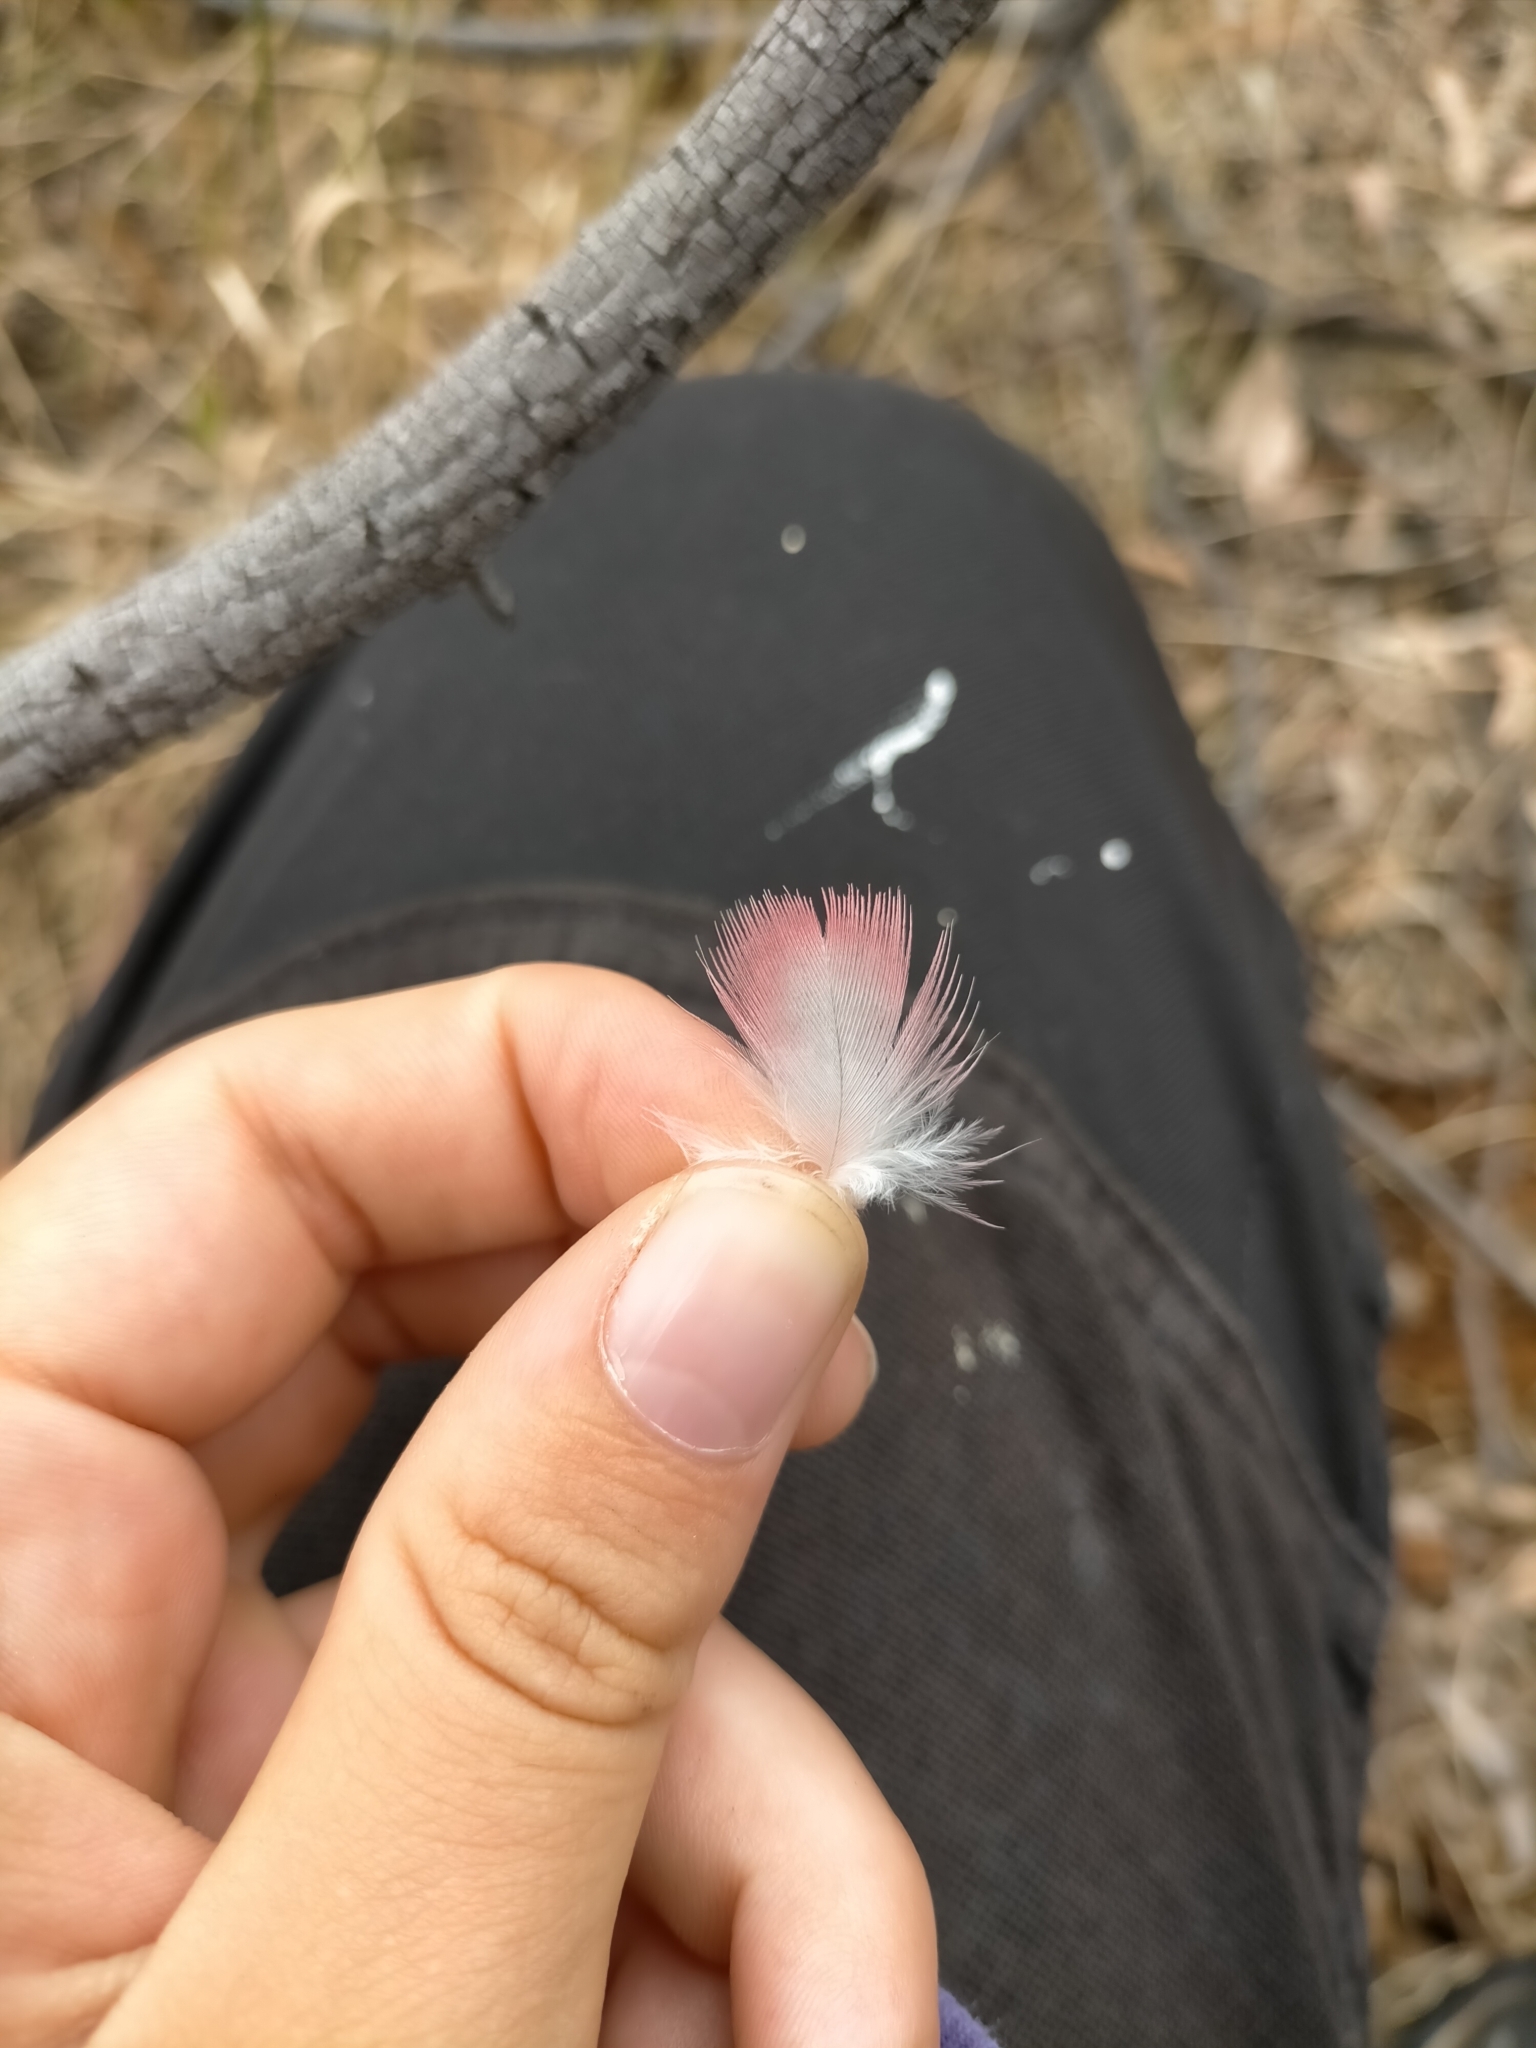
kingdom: Animalia
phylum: Chordata
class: Aves
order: Psittaciformes
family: Psittacidae
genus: Eolophus
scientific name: Eolophus roseicapilla
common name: Galah
